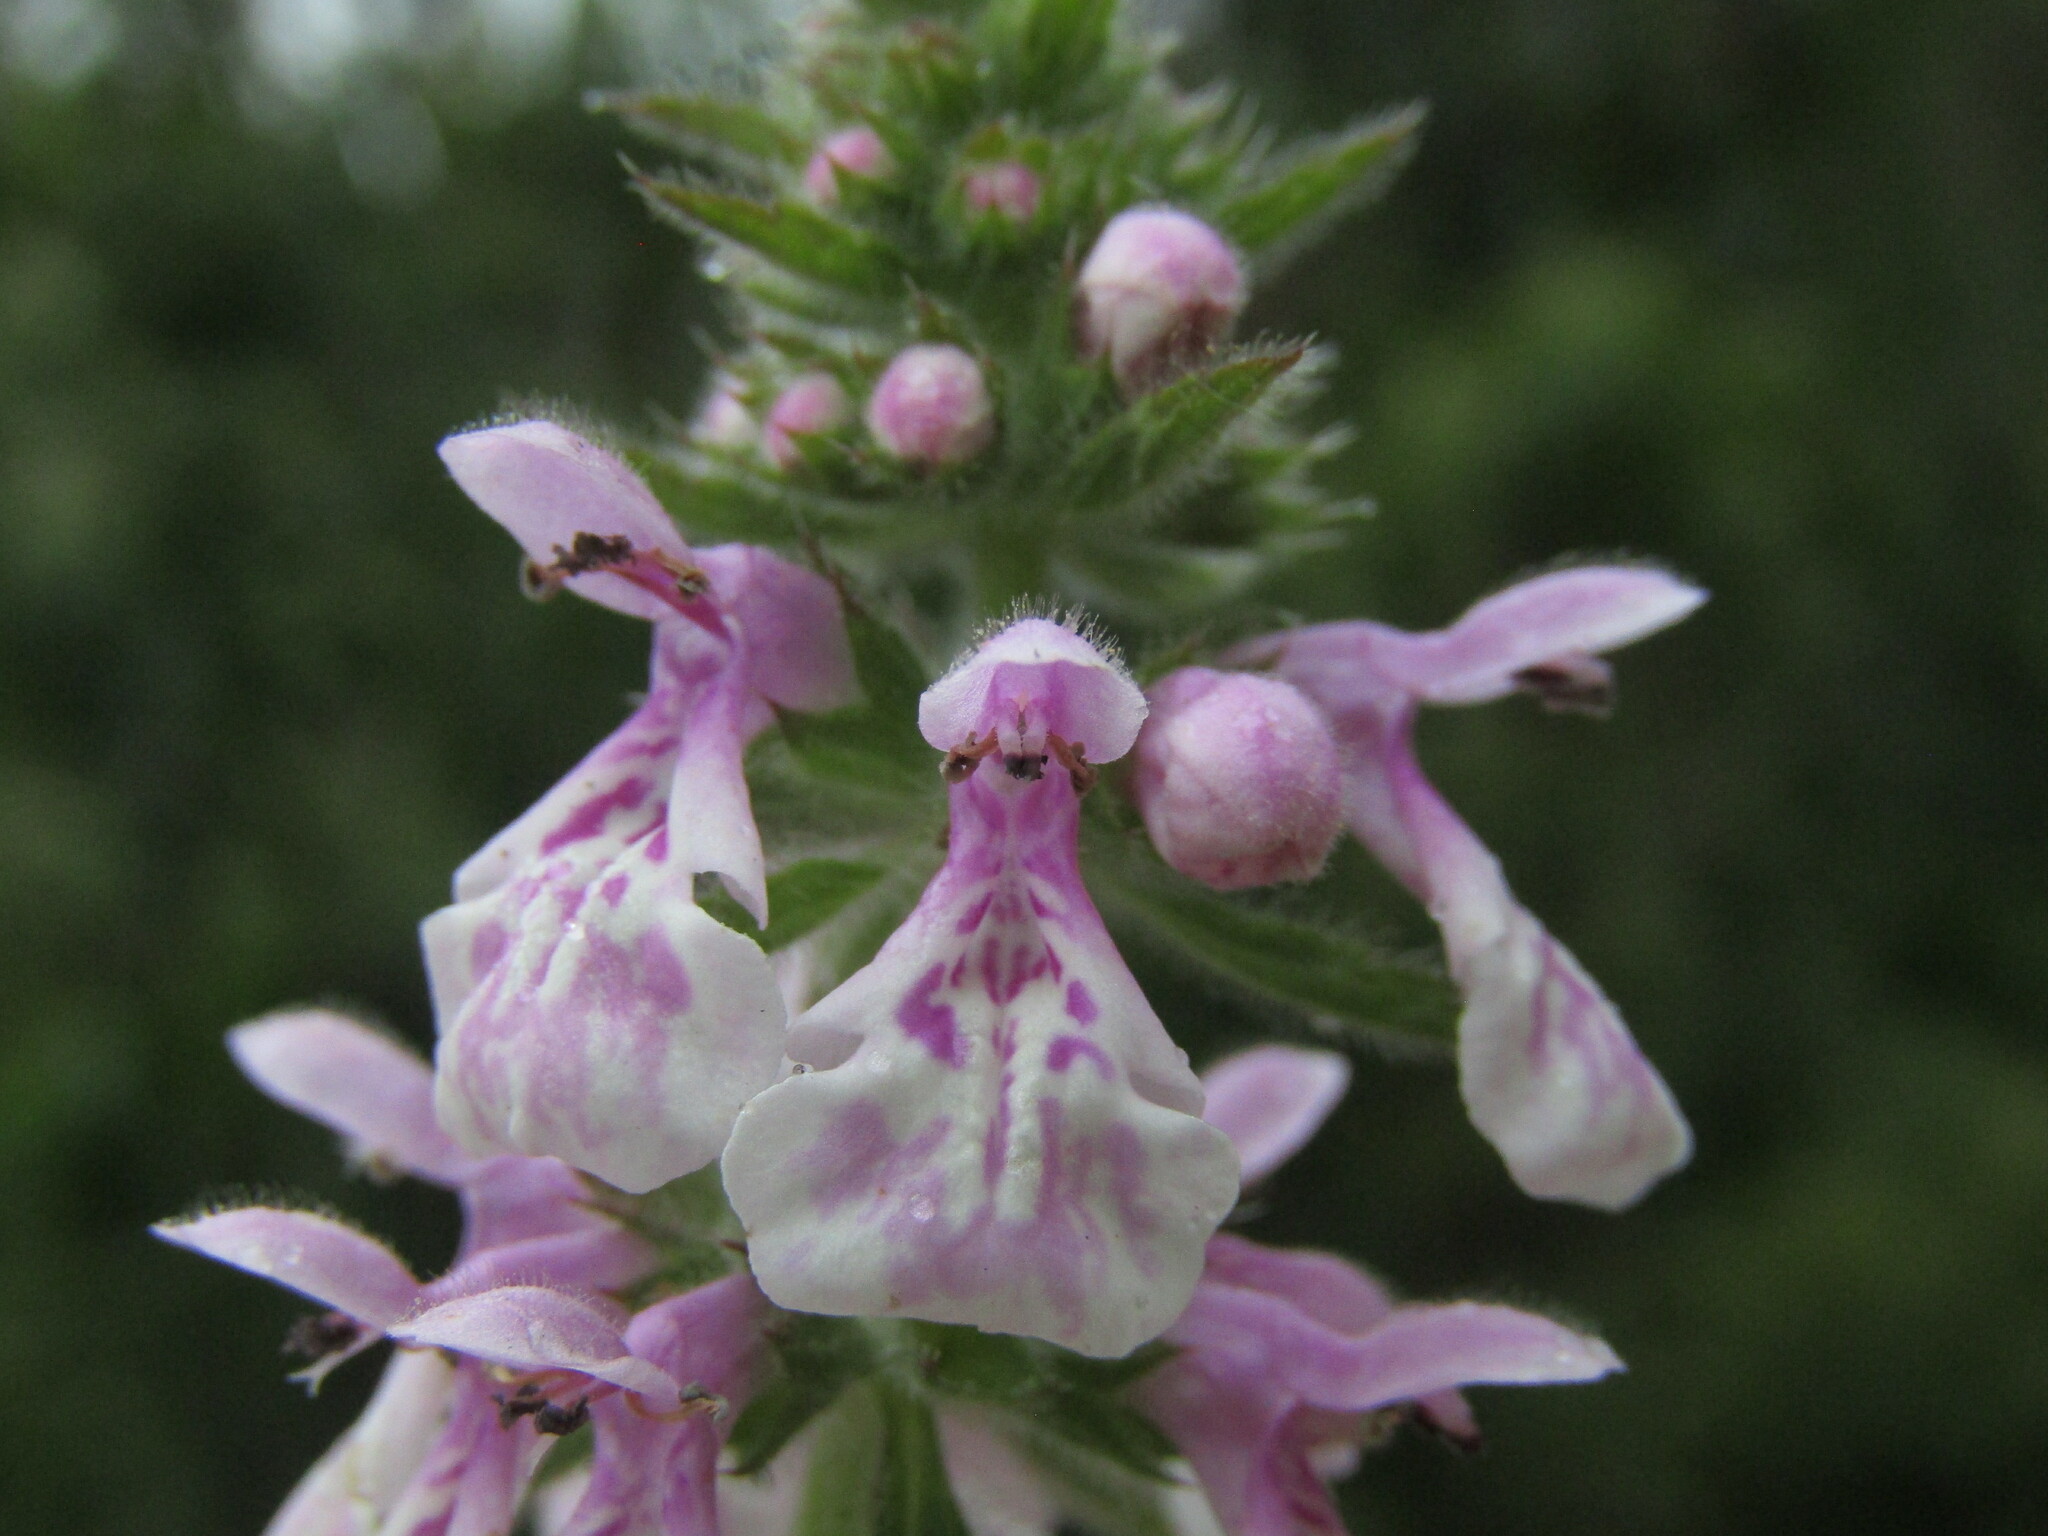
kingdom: Plantae
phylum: Tracheophyta
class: Magnoliopsida
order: Lamiales
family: Lamiaceae
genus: Stachys
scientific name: Stachys grandidentata
